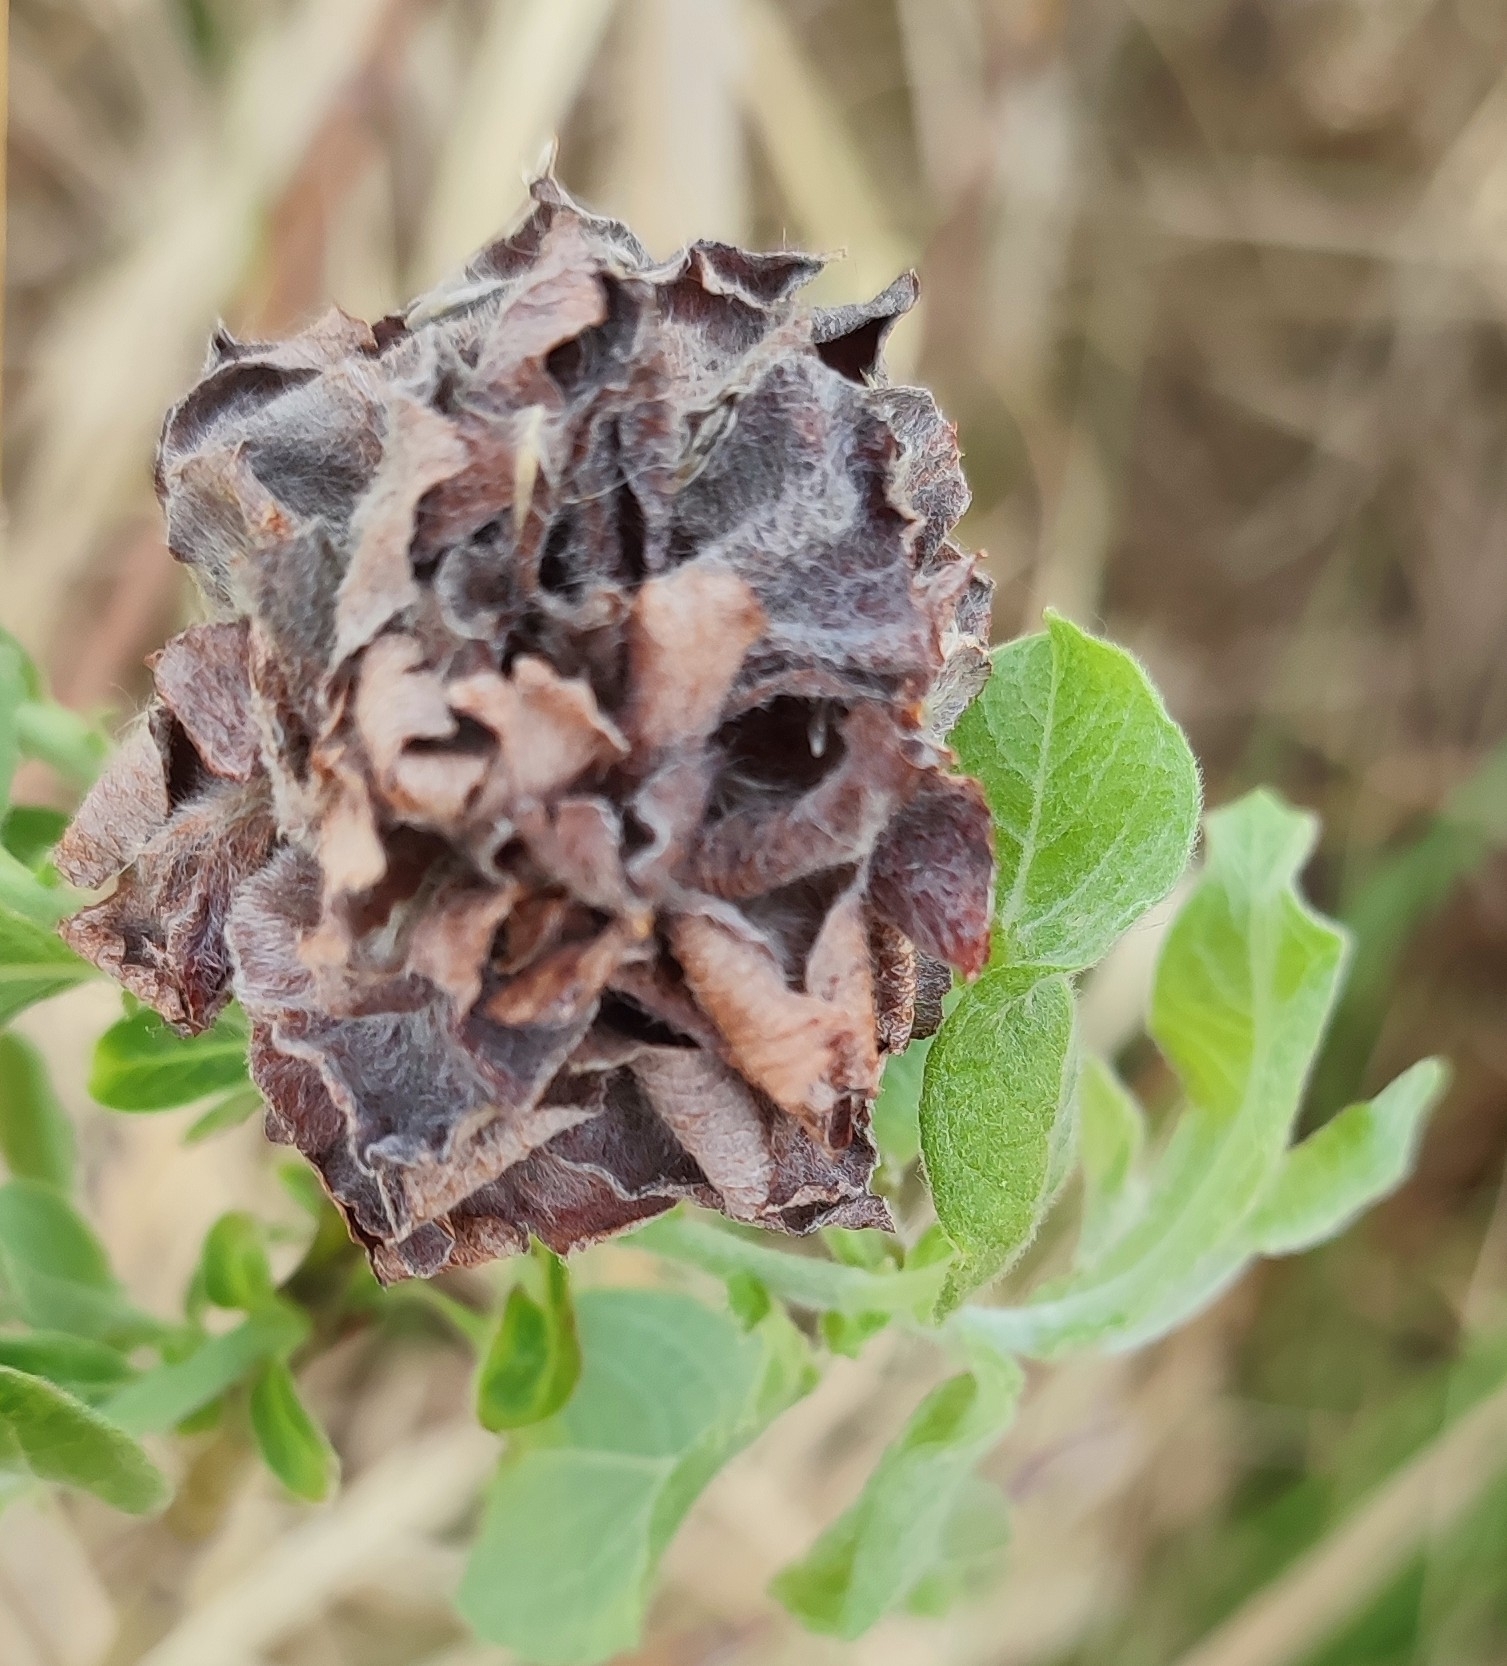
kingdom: Animalia
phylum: Arthropoda
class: Insecta
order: Diptera
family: Cecidomyiidae
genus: Rabdophaga
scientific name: Rabdophaga rosaria
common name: Willow rose gall midge
